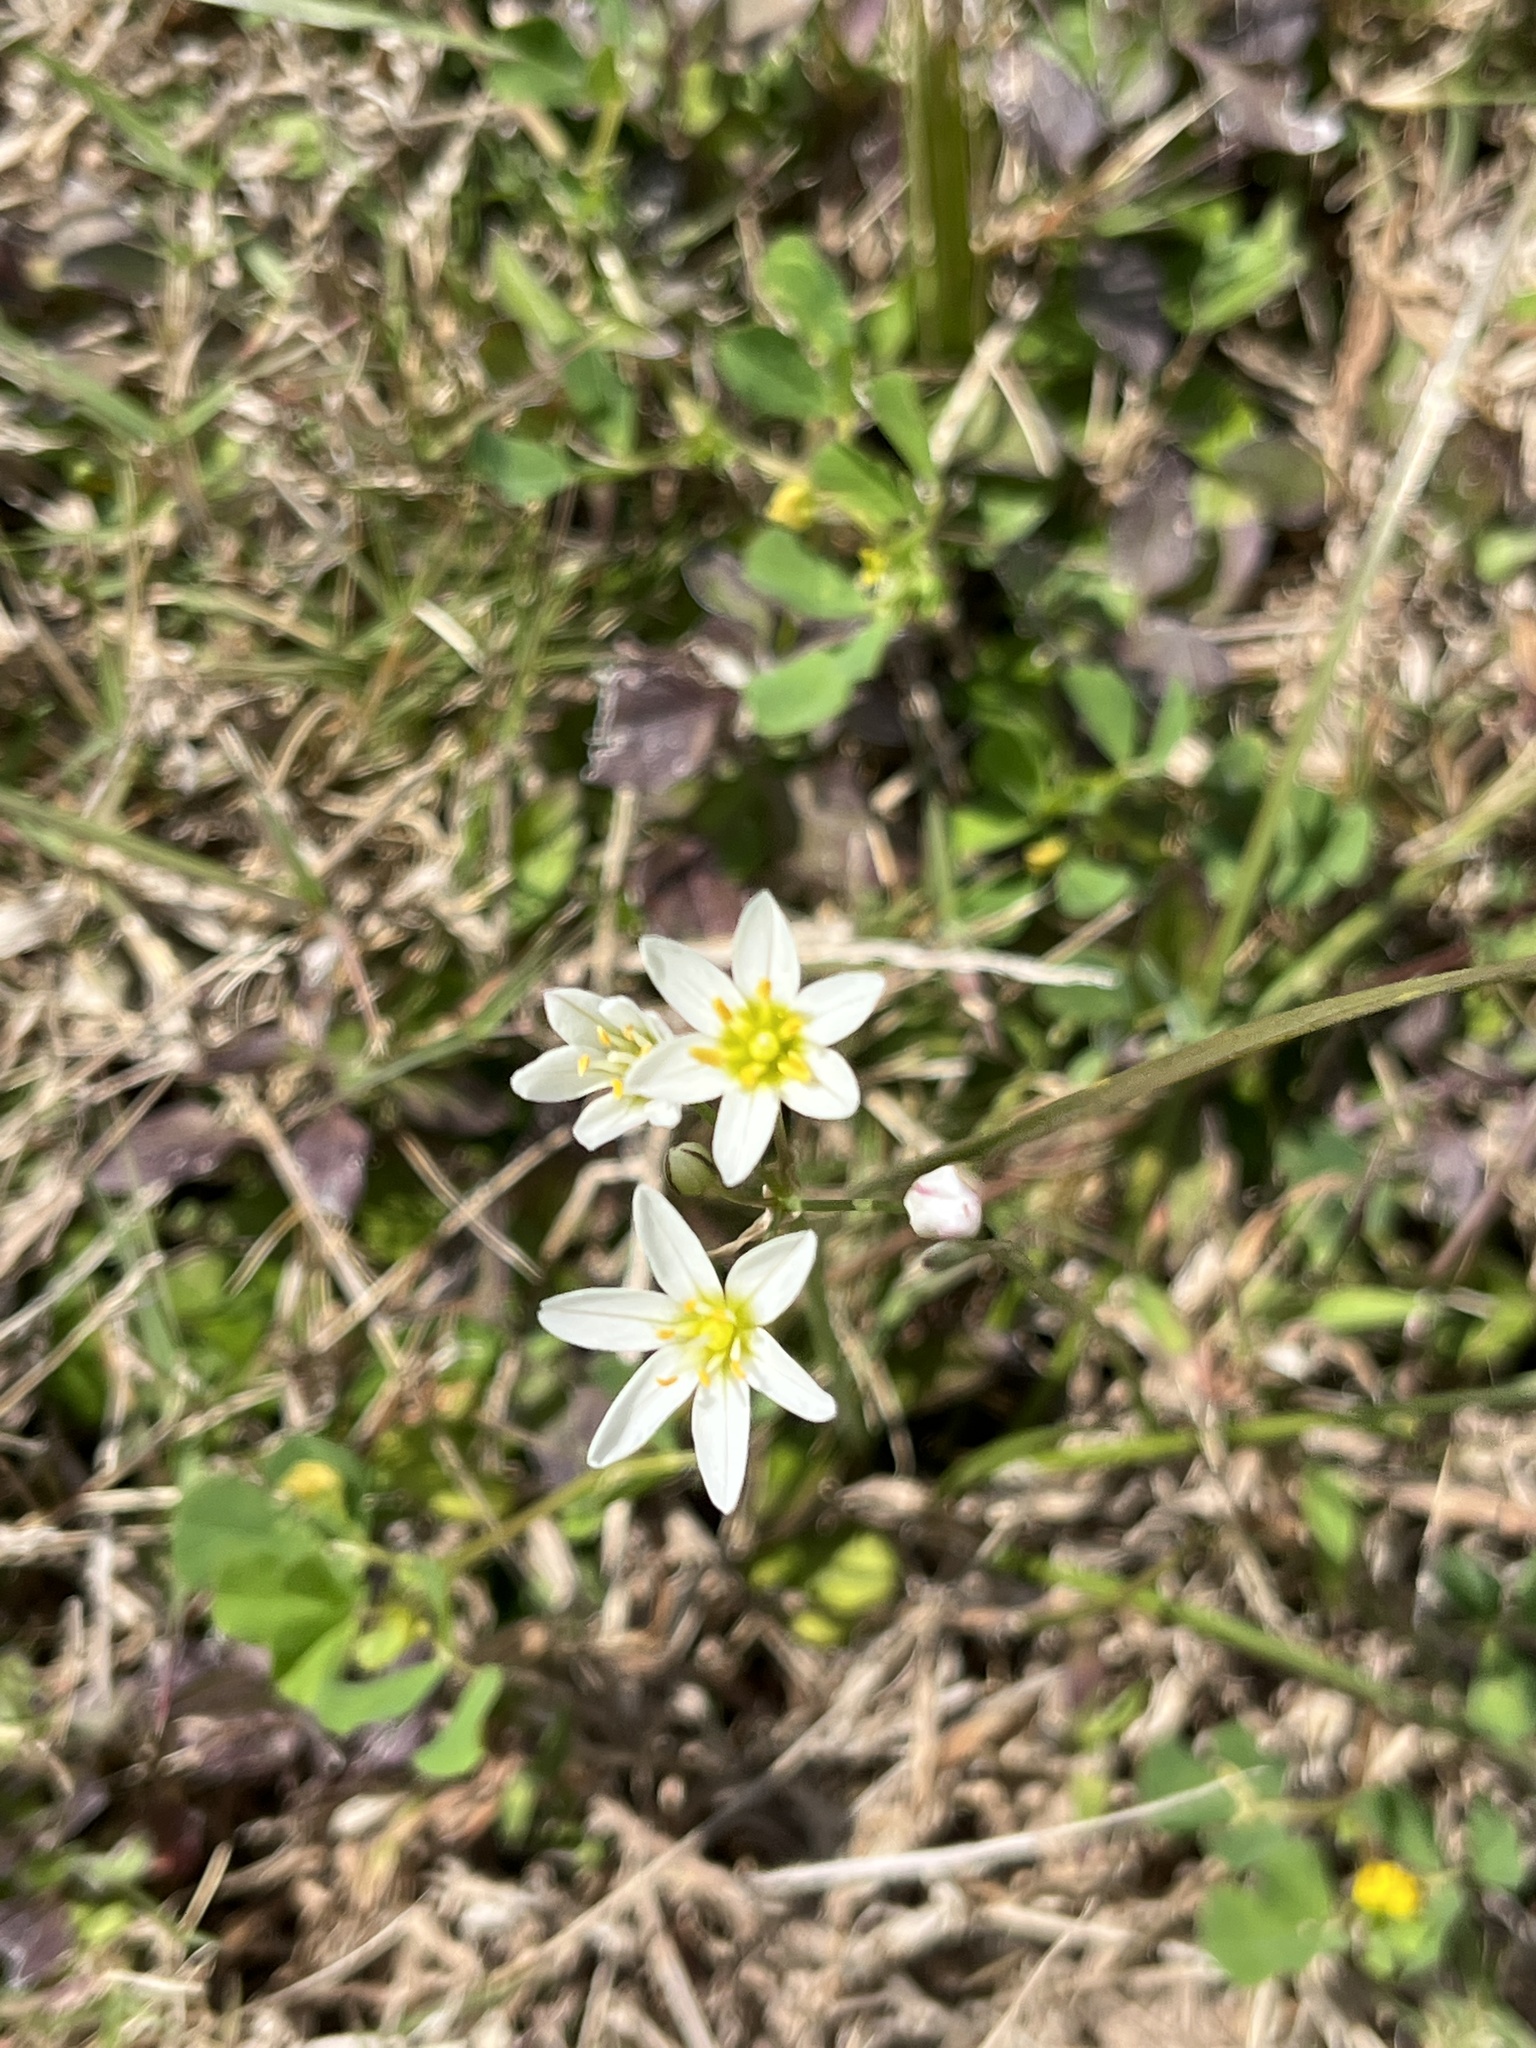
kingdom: Plantae
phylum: Tracheophyta
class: Liliopsida
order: Asparagales
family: Amaryllidaceae
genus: Nothoscordum
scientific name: Nothoscordum bivalve
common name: Crow-poison
